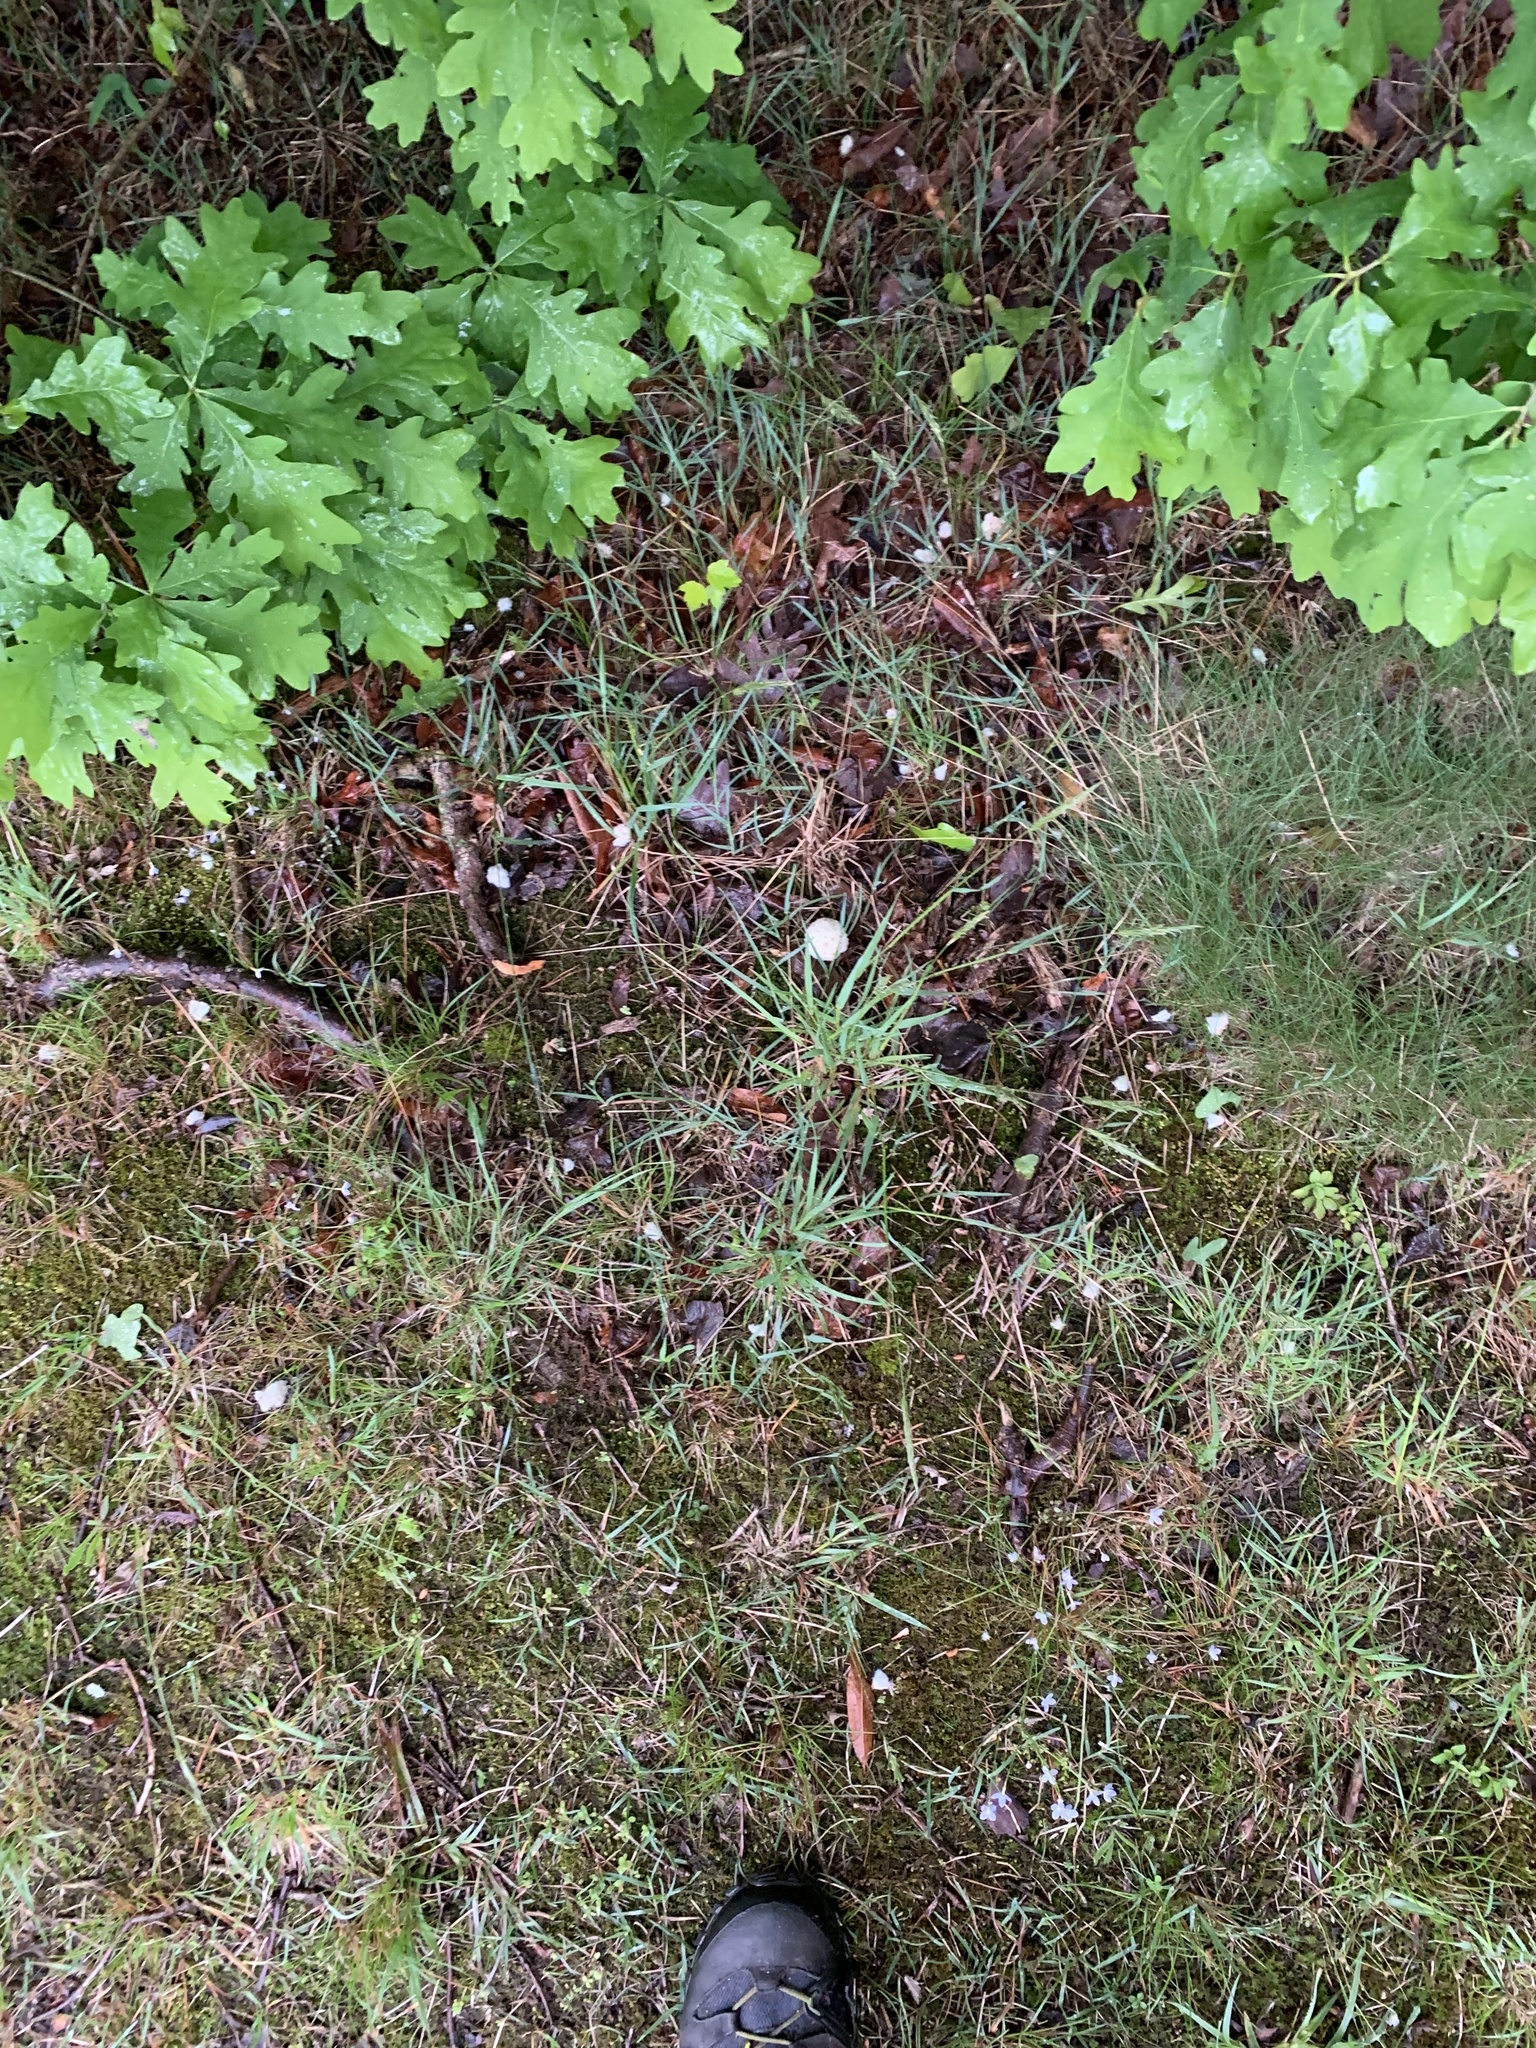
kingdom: Animalia
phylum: Arthropoda
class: Insecta
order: Hymenoptera
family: Cynipidae
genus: Callirhytis
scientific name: Callirhytis
